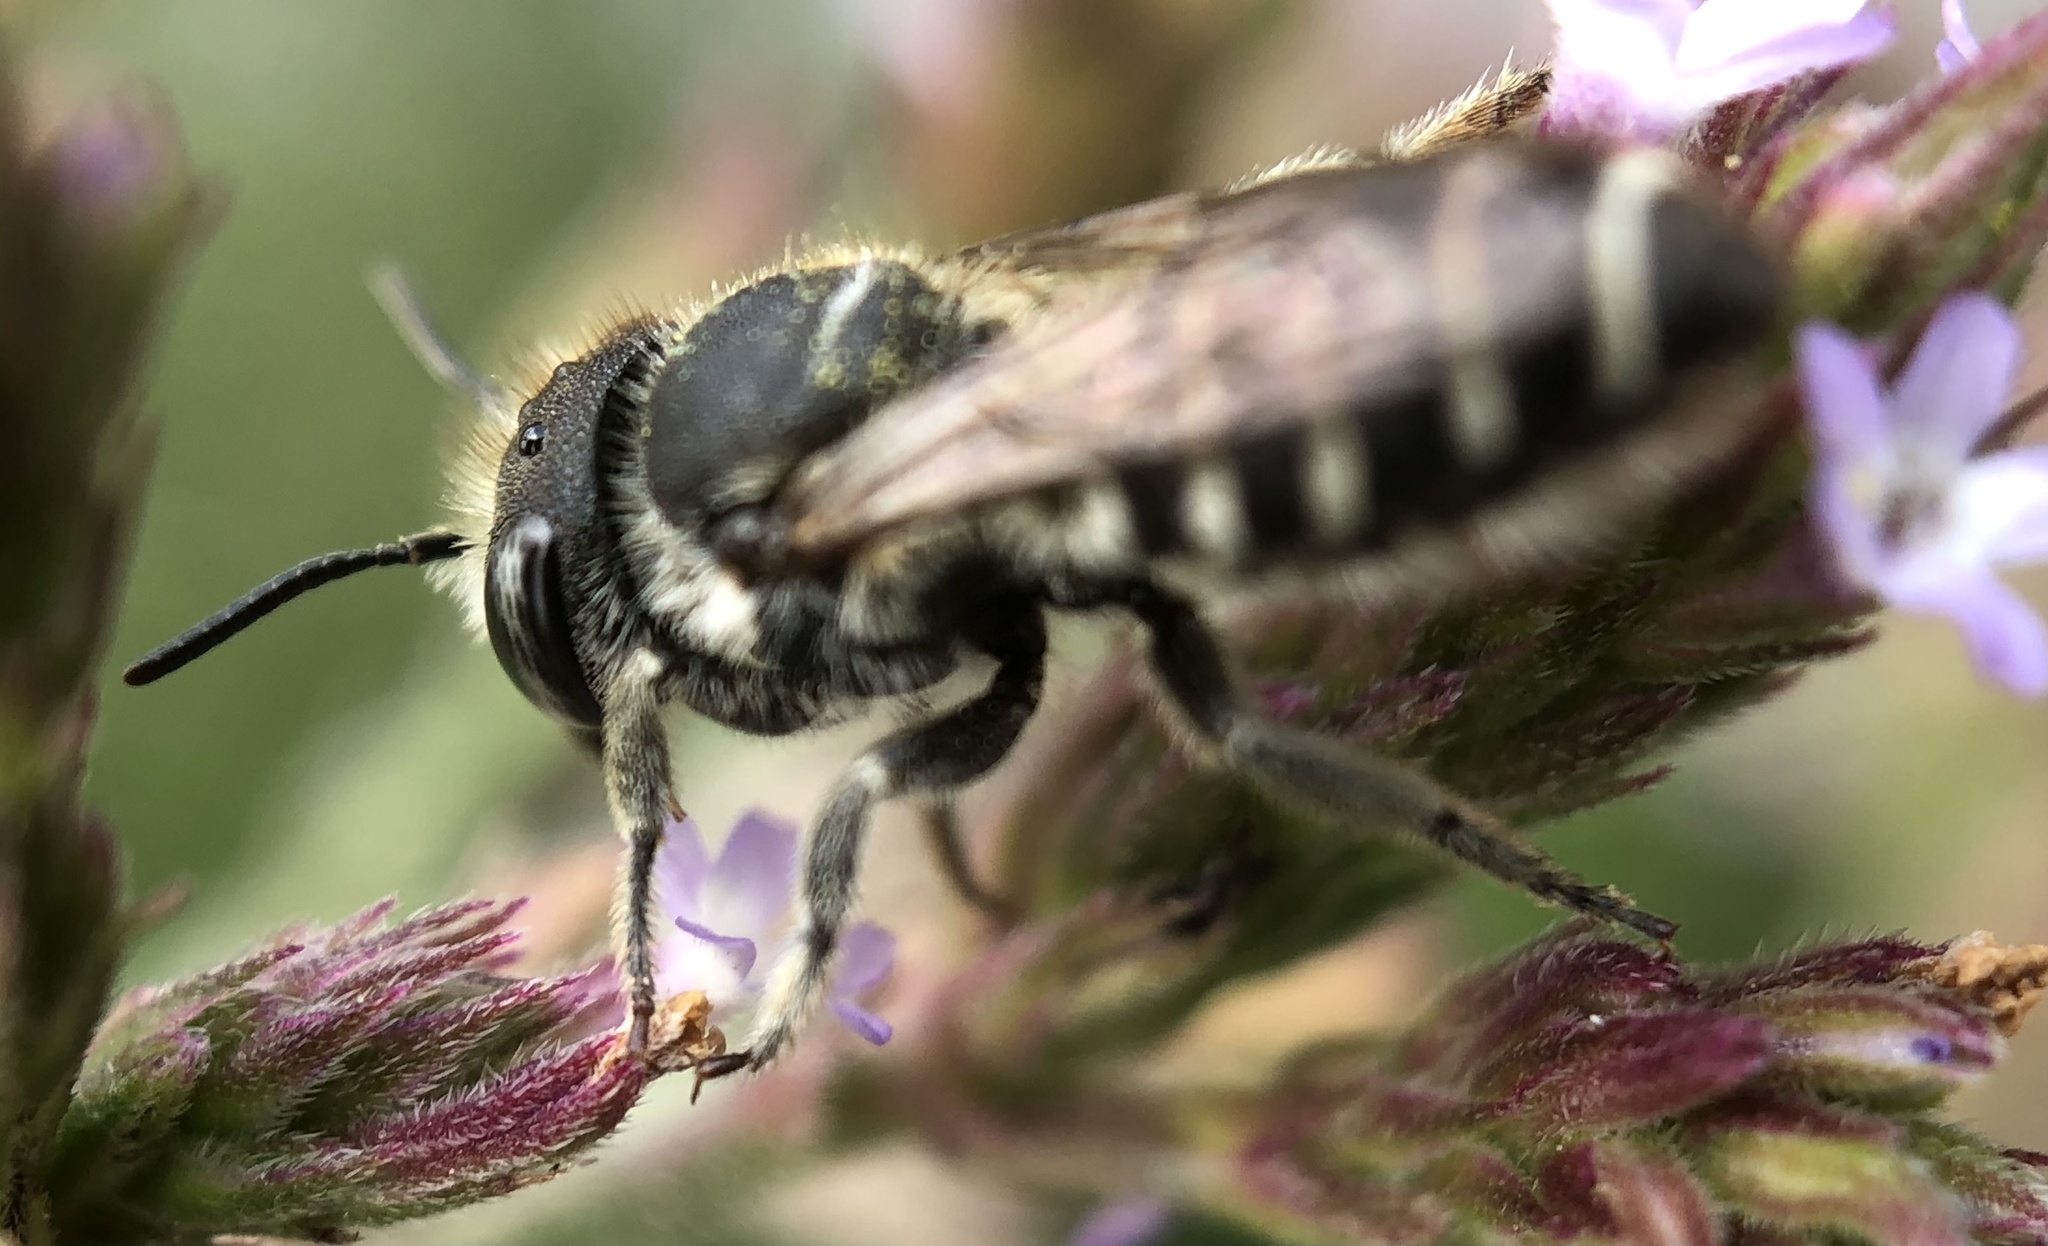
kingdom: Animalia
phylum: Arthropoda
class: Insecta
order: Hymenoptera
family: Megachilidae
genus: Megachile
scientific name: Megachile rotundata
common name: Alfalfa leafcutting bee
